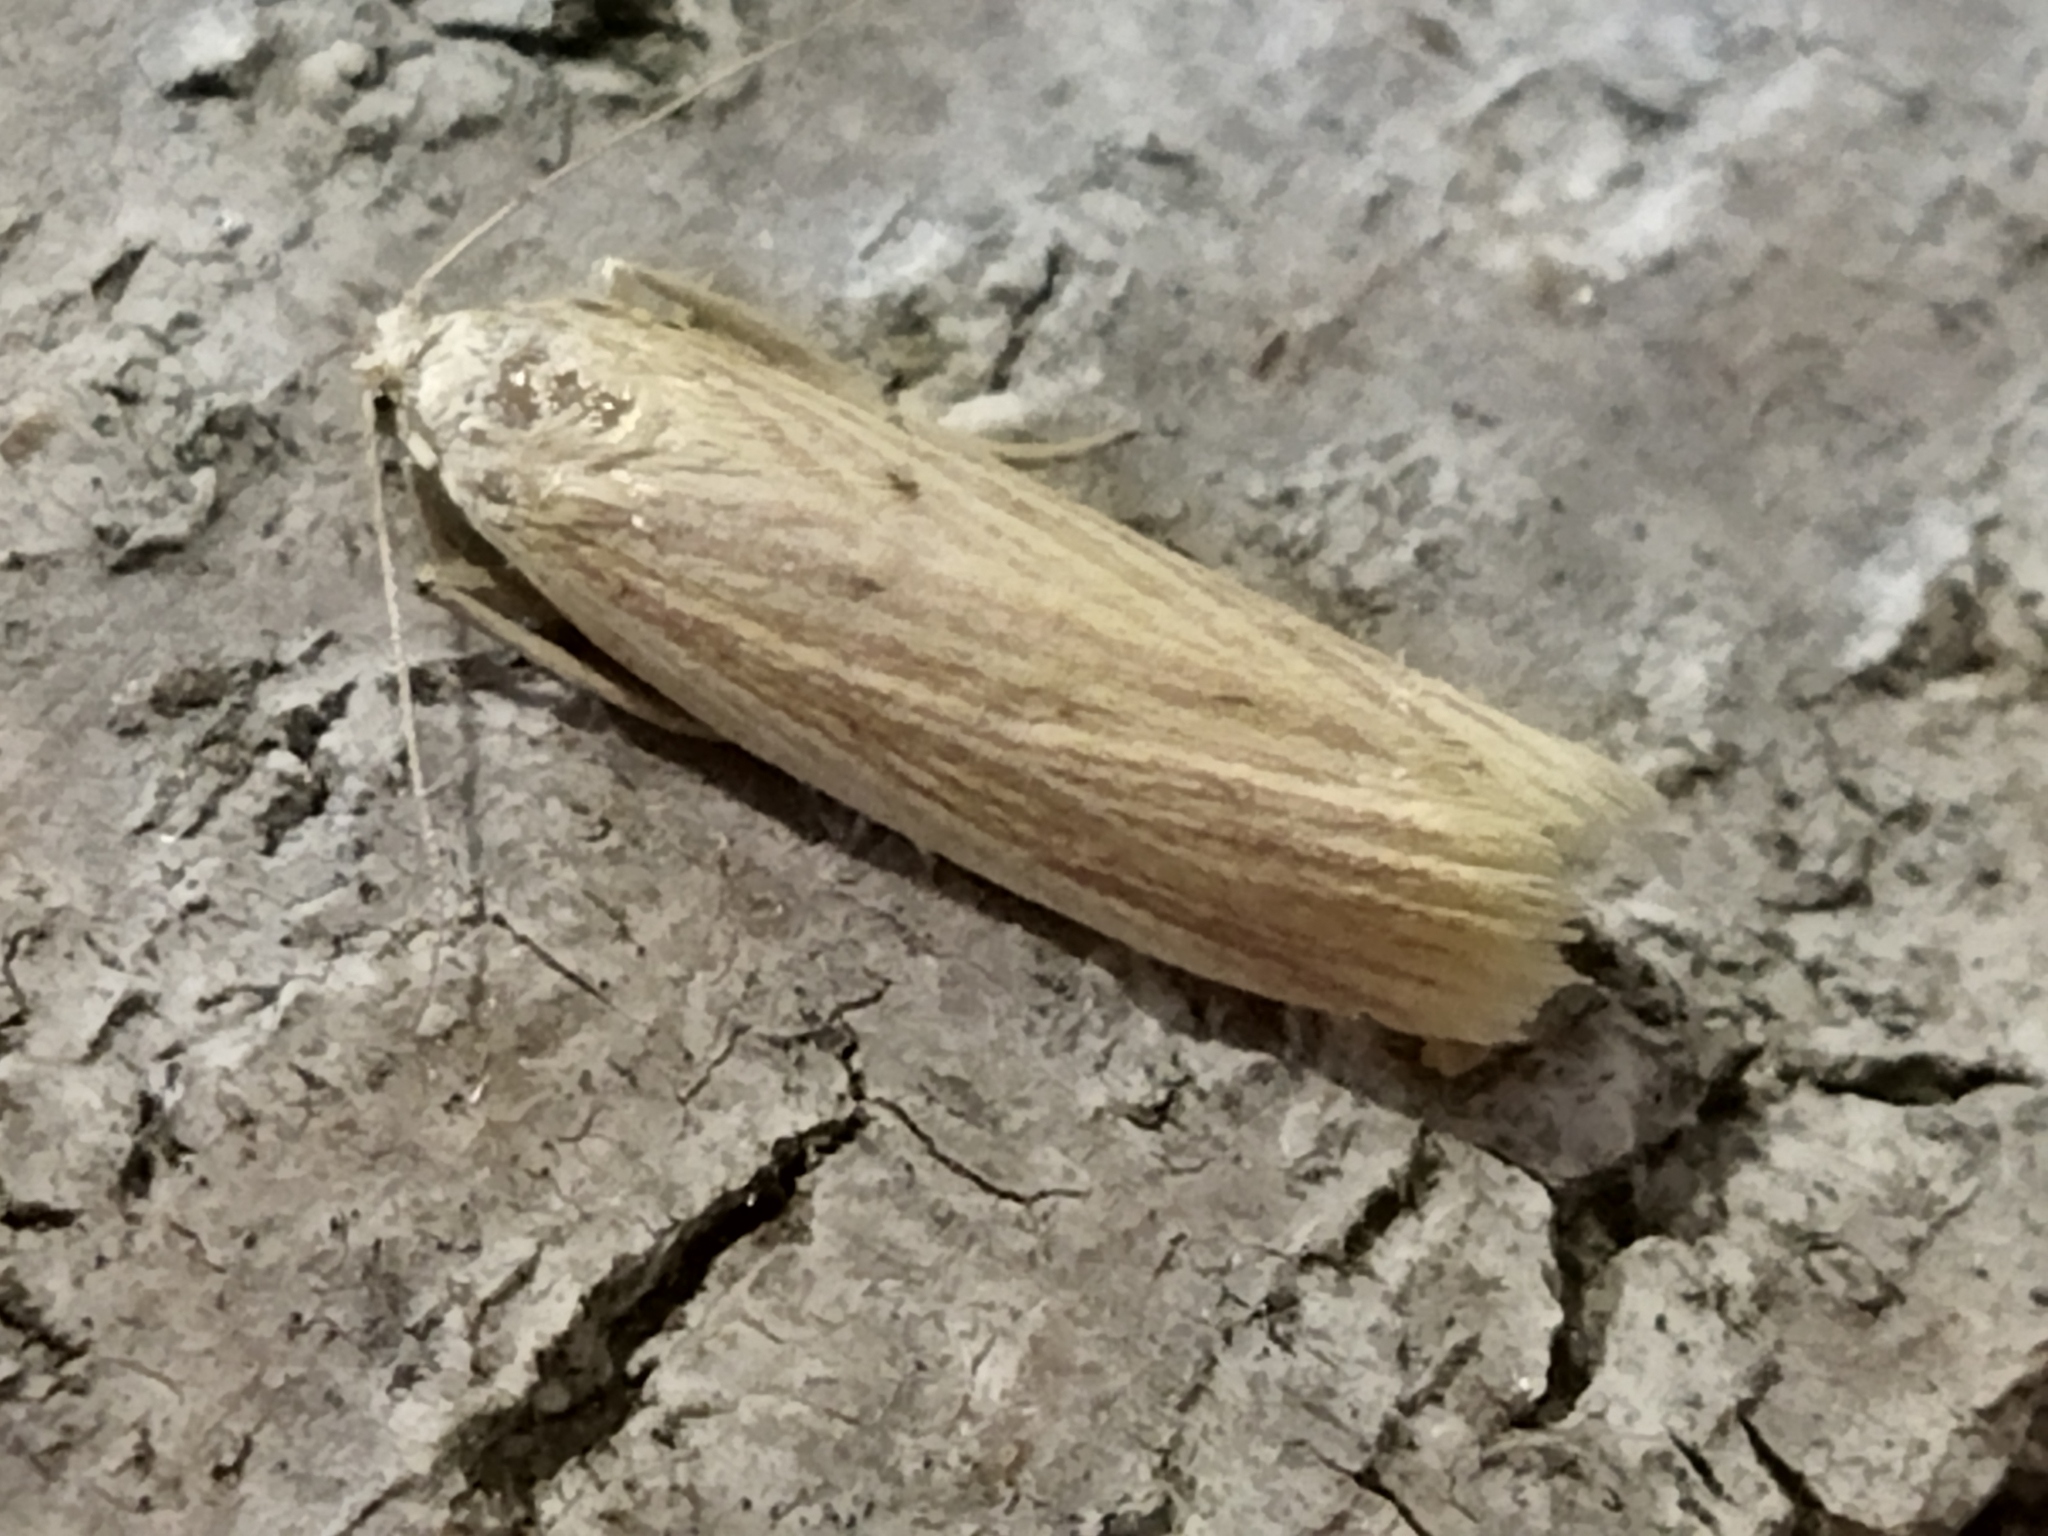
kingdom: Animalia
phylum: Arthropoda
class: Insecta
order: Lepidoptera
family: Pyralidae
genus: Ematheudes
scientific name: Ematheudes punctellus
